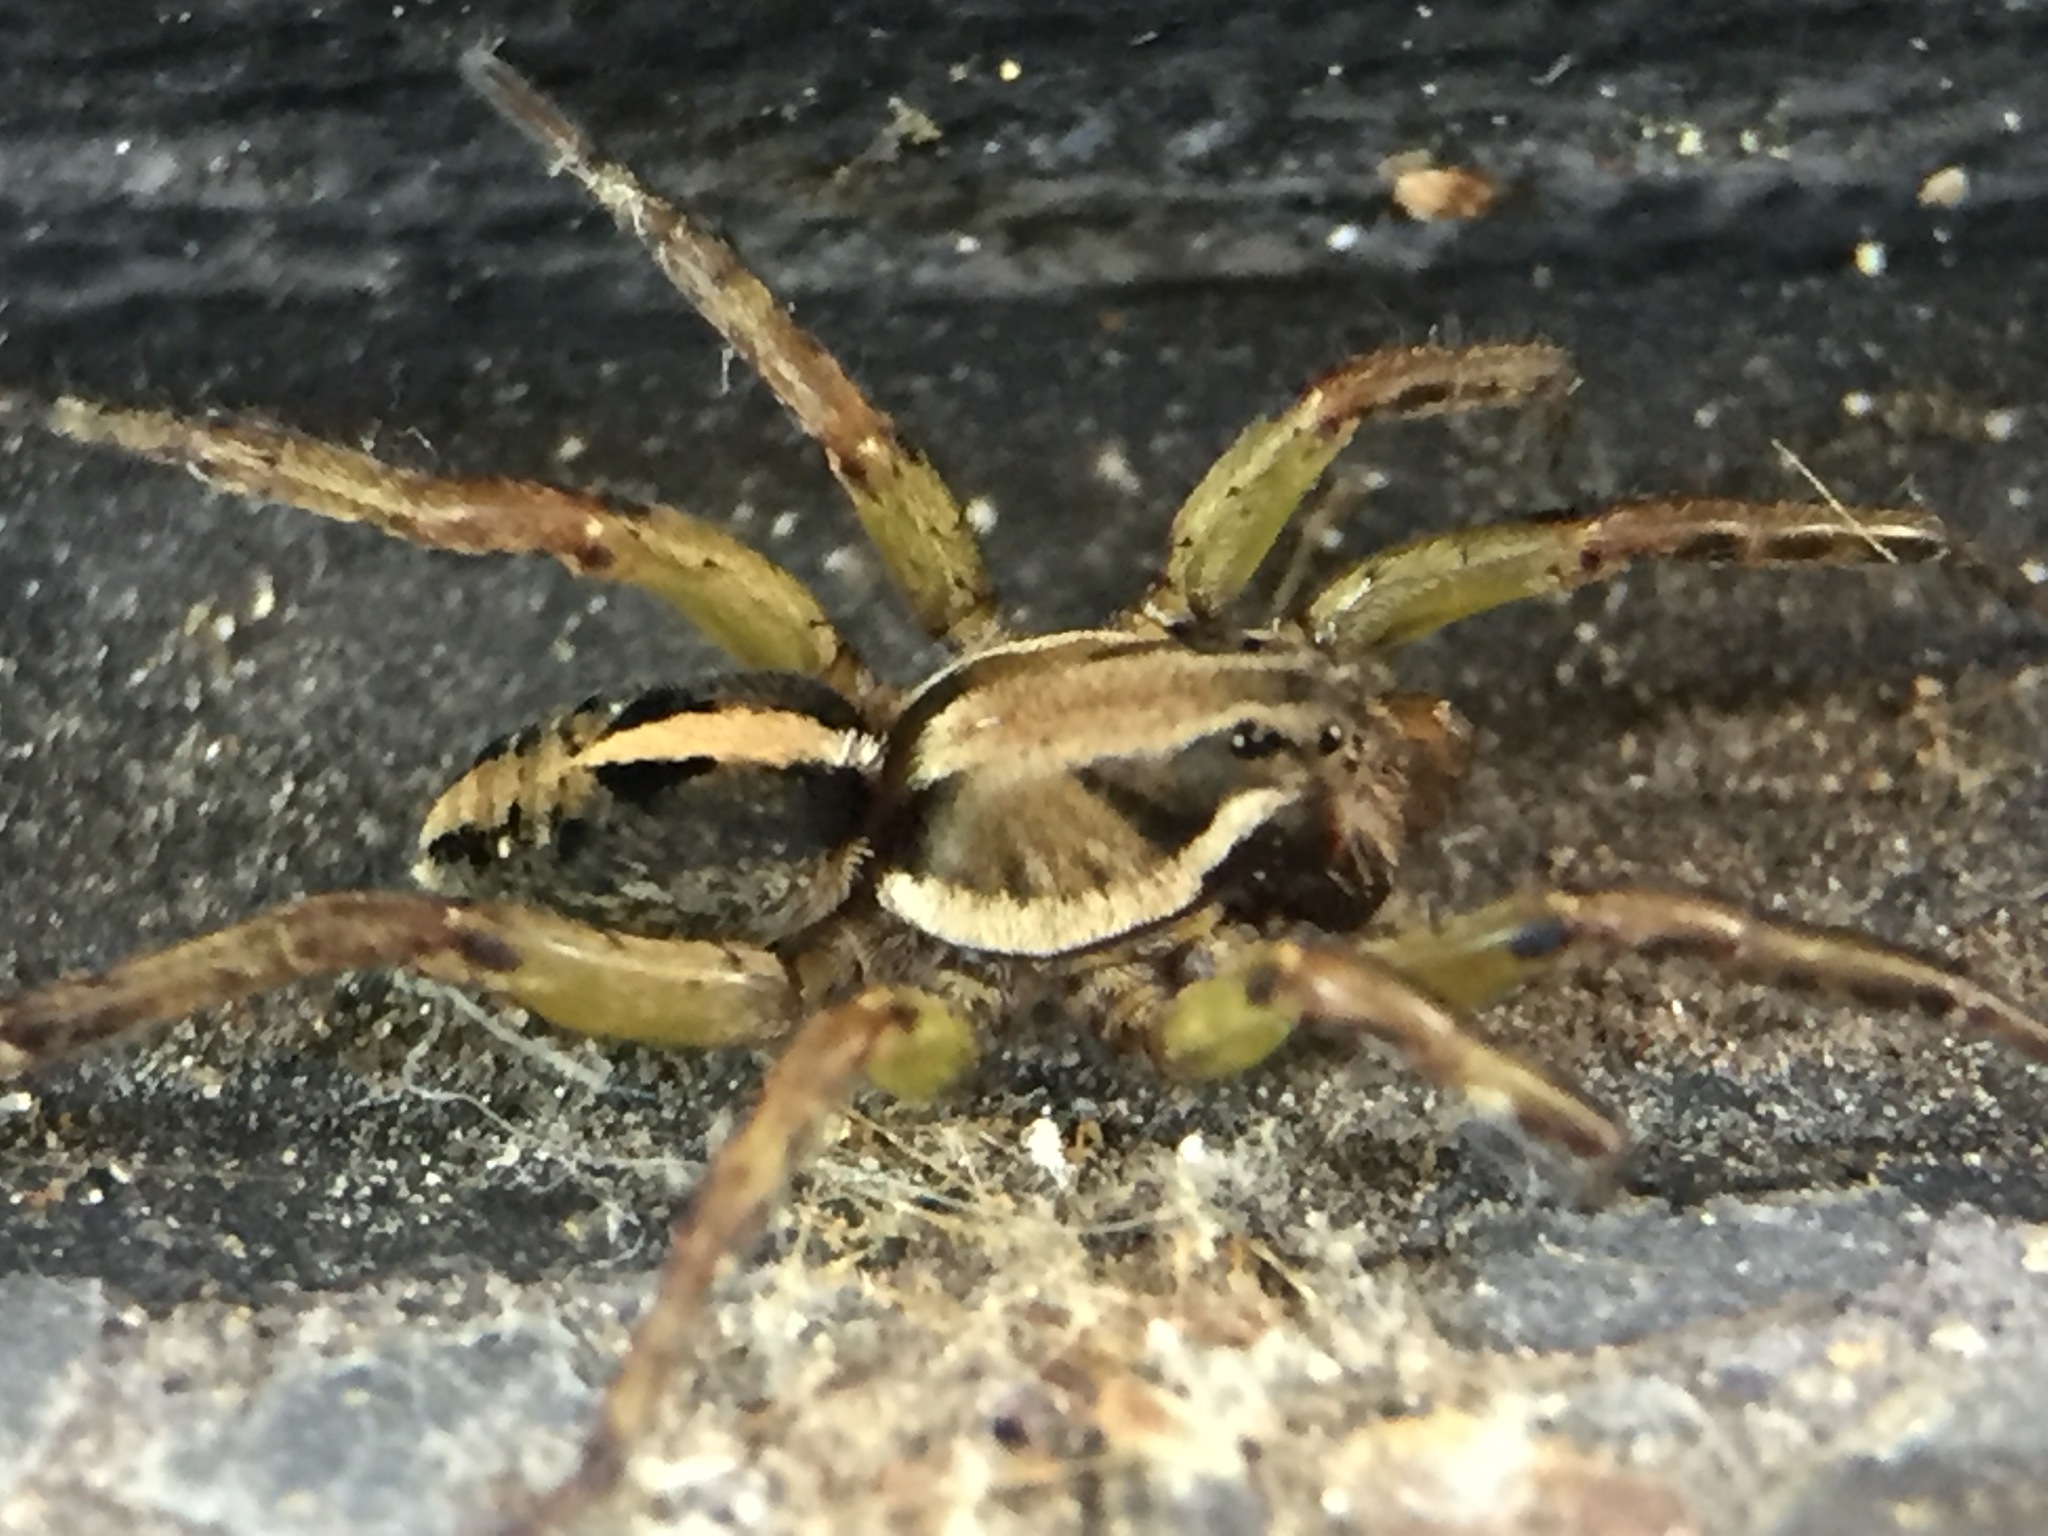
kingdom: Animalia
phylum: Arthropoda
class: Arachnida
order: Araneae
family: Lycosidae
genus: Artoriopsis
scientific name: Artoriopsis expolita
